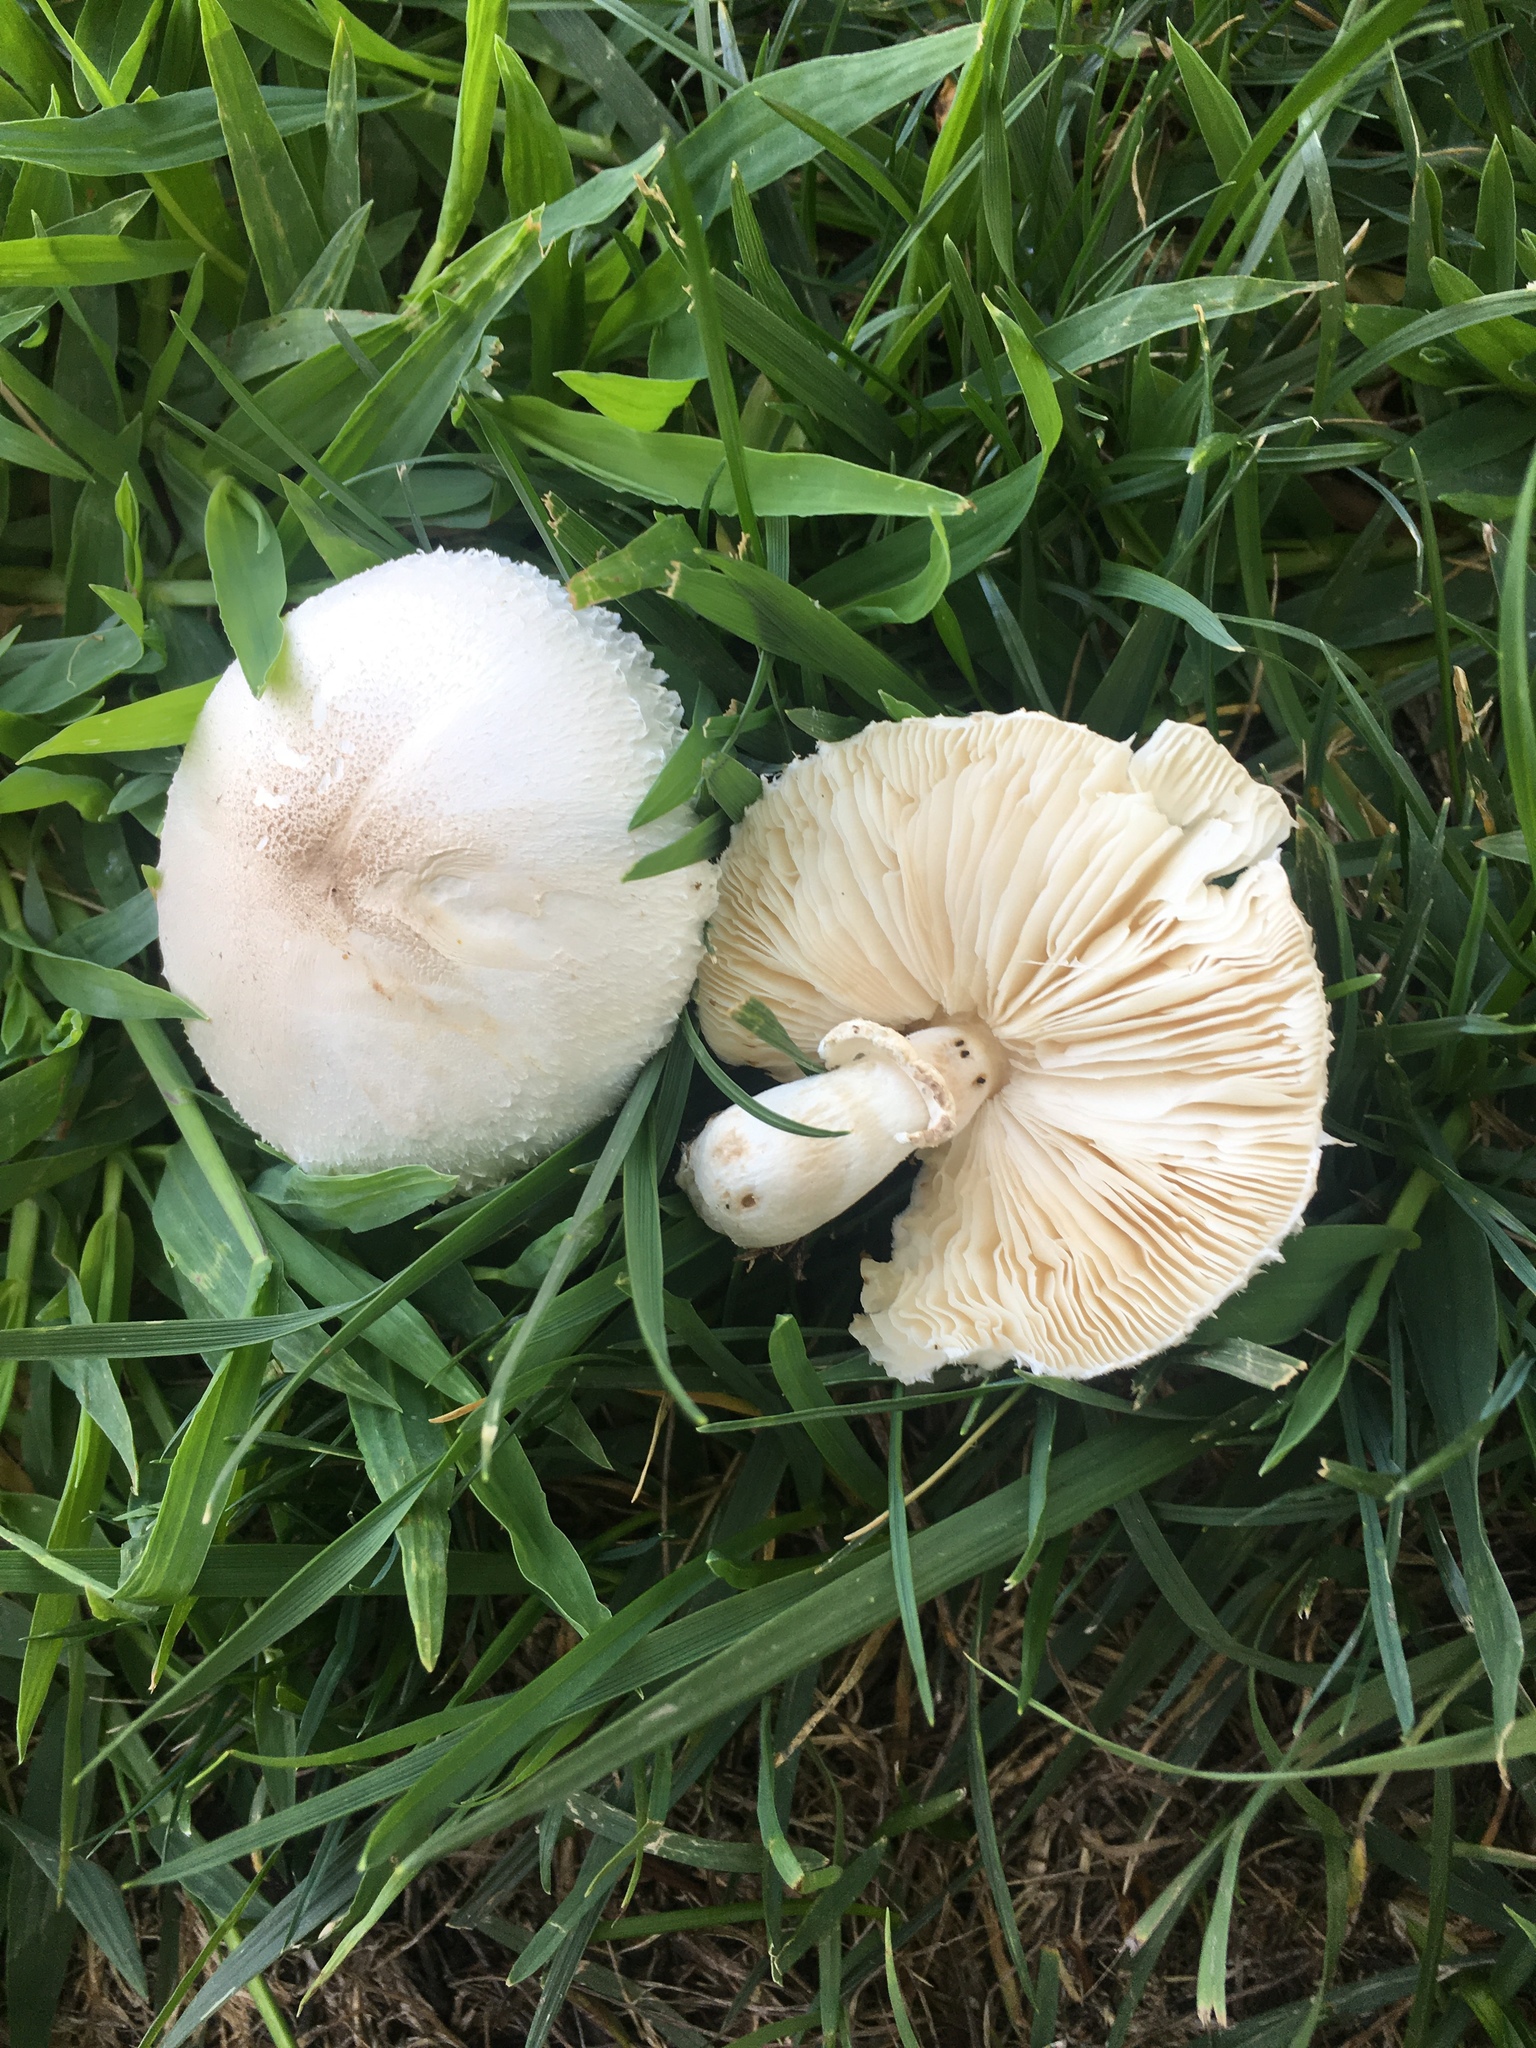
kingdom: Fungi
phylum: Basidiomycota
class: Agaricomycetes
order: Agaricales
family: Agaricaceae
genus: Leucoagaricus
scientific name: Leucoagaricus leucothites
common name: White dapperling
